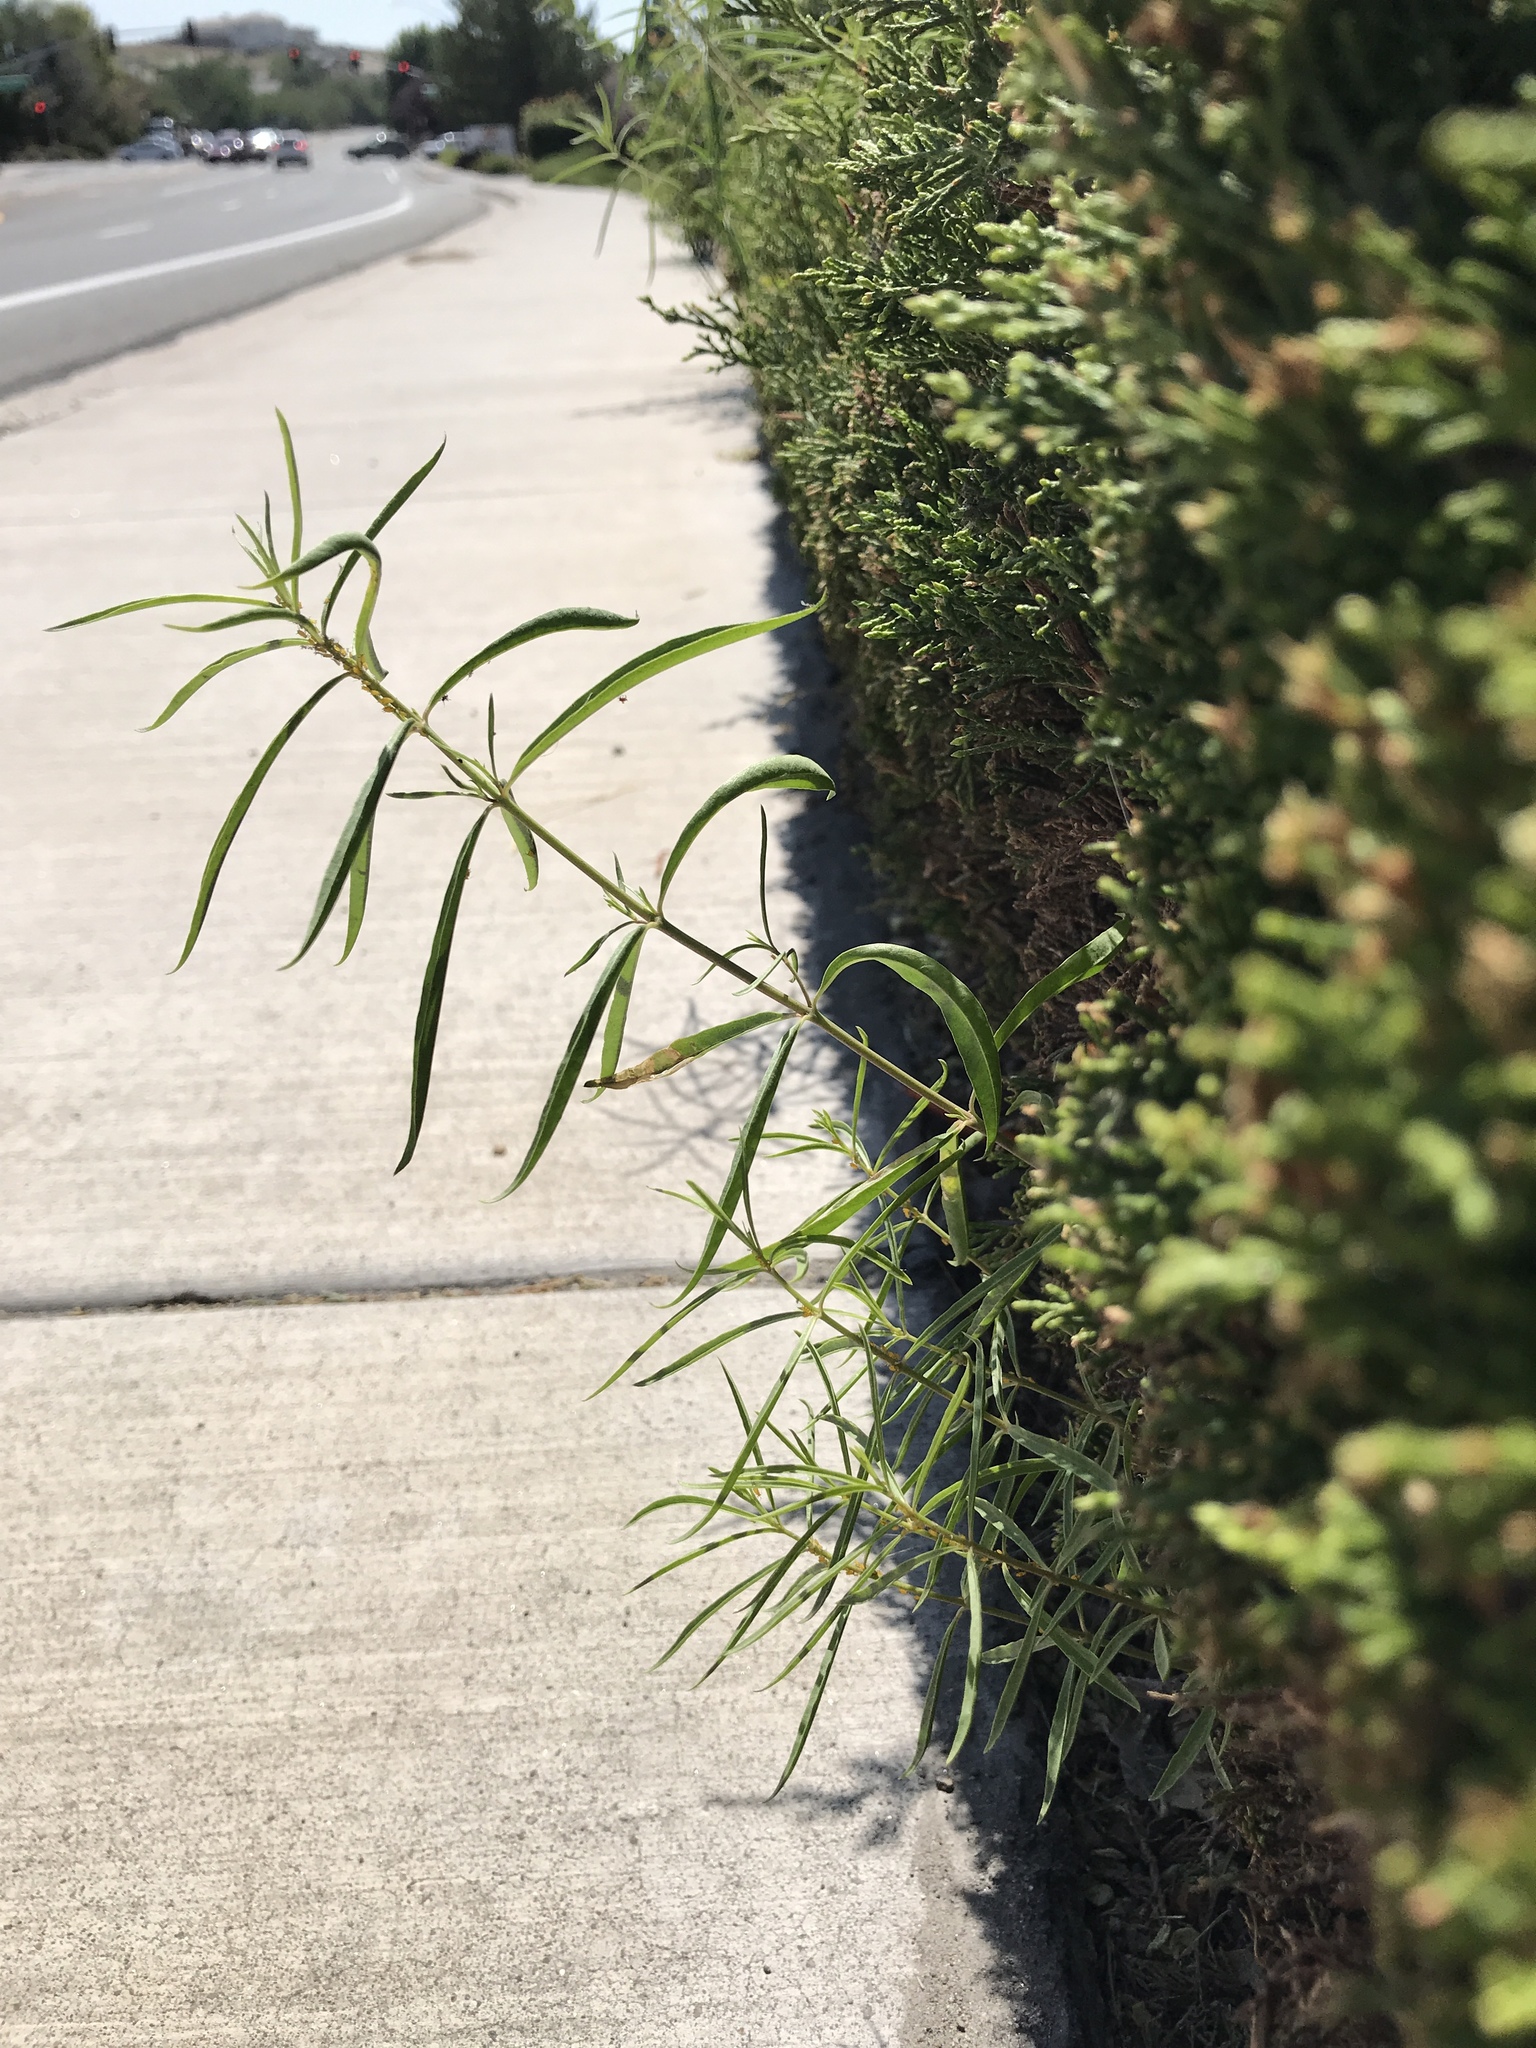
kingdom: Plantae
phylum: Tracheophyta
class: Magnoliopsida
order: Gentianales
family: Apocynaceae
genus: Asclepias
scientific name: Asclepias fascicularis
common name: Mexican milkweed
